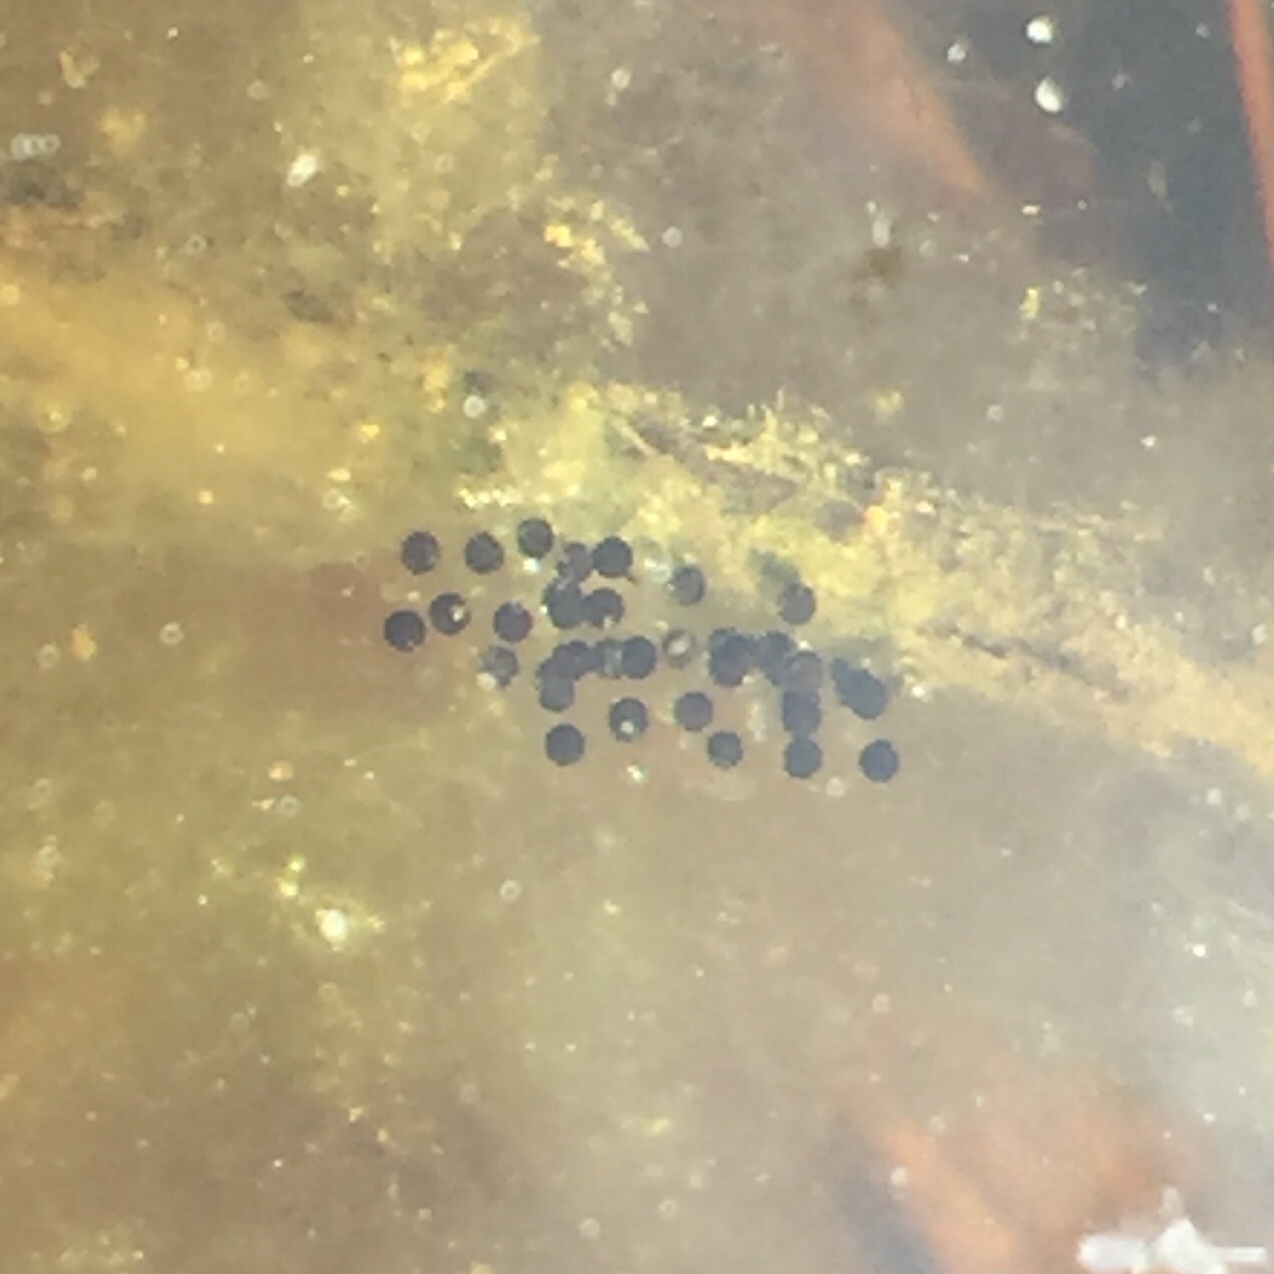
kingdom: Animalia
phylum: Chordata
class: Amphibia
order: Anura
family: Hylidae
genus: Dryophytes
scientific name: Dryophytes versicolor
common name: Gray treefrog
